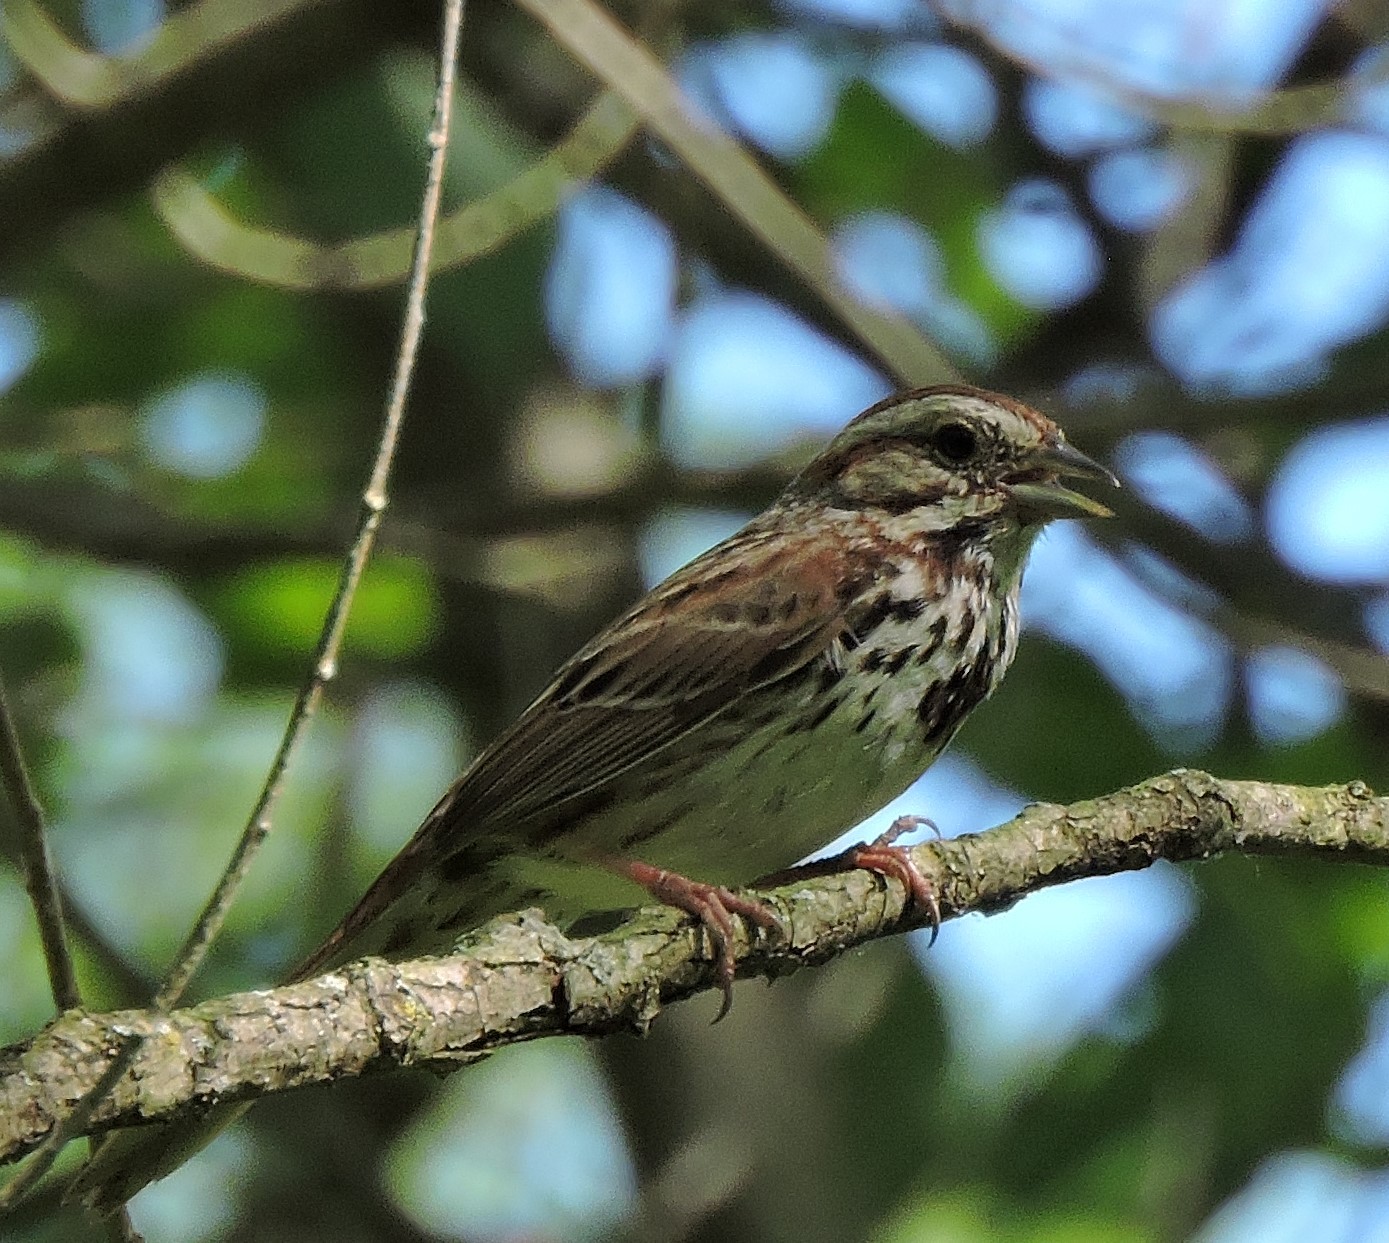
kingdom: Animalia
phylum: Chordata
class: Aves
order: Passeriformes
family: Passerellidae
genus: Melospiza
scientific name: Melospiza melodia
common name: Song sparrow
